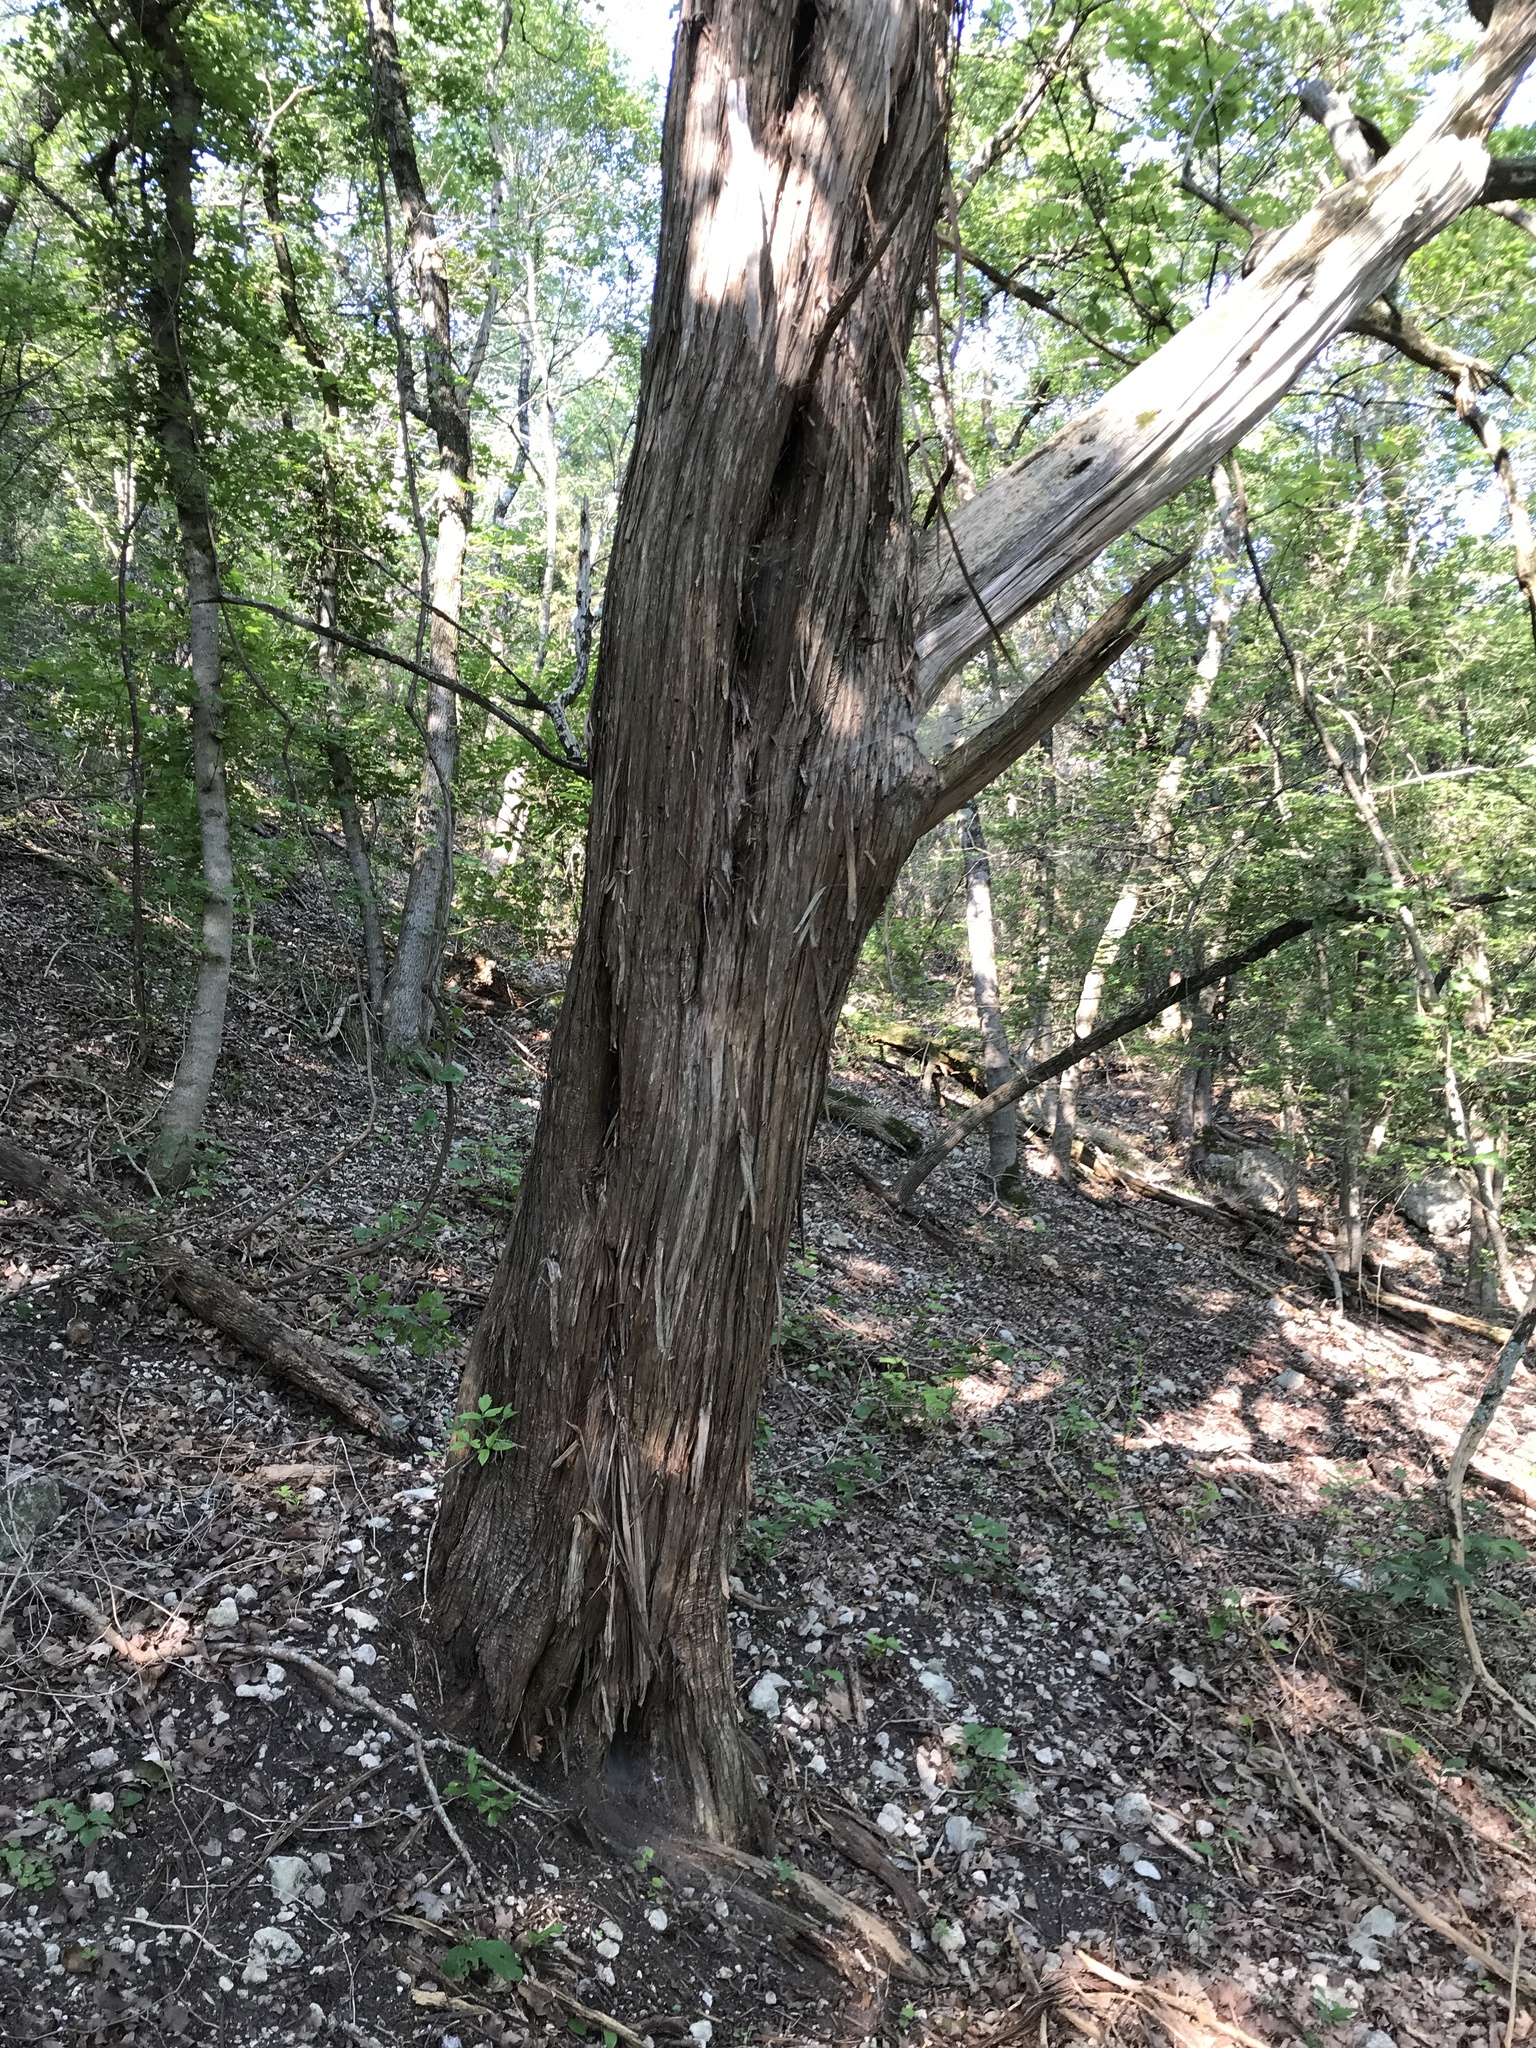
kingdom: Plantae
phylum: Tracheophyta
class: Pinopsida
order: Pinales
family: Cupressaceae
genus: Juniperus
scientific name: Juniperus ashei
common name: Mexican juniper
